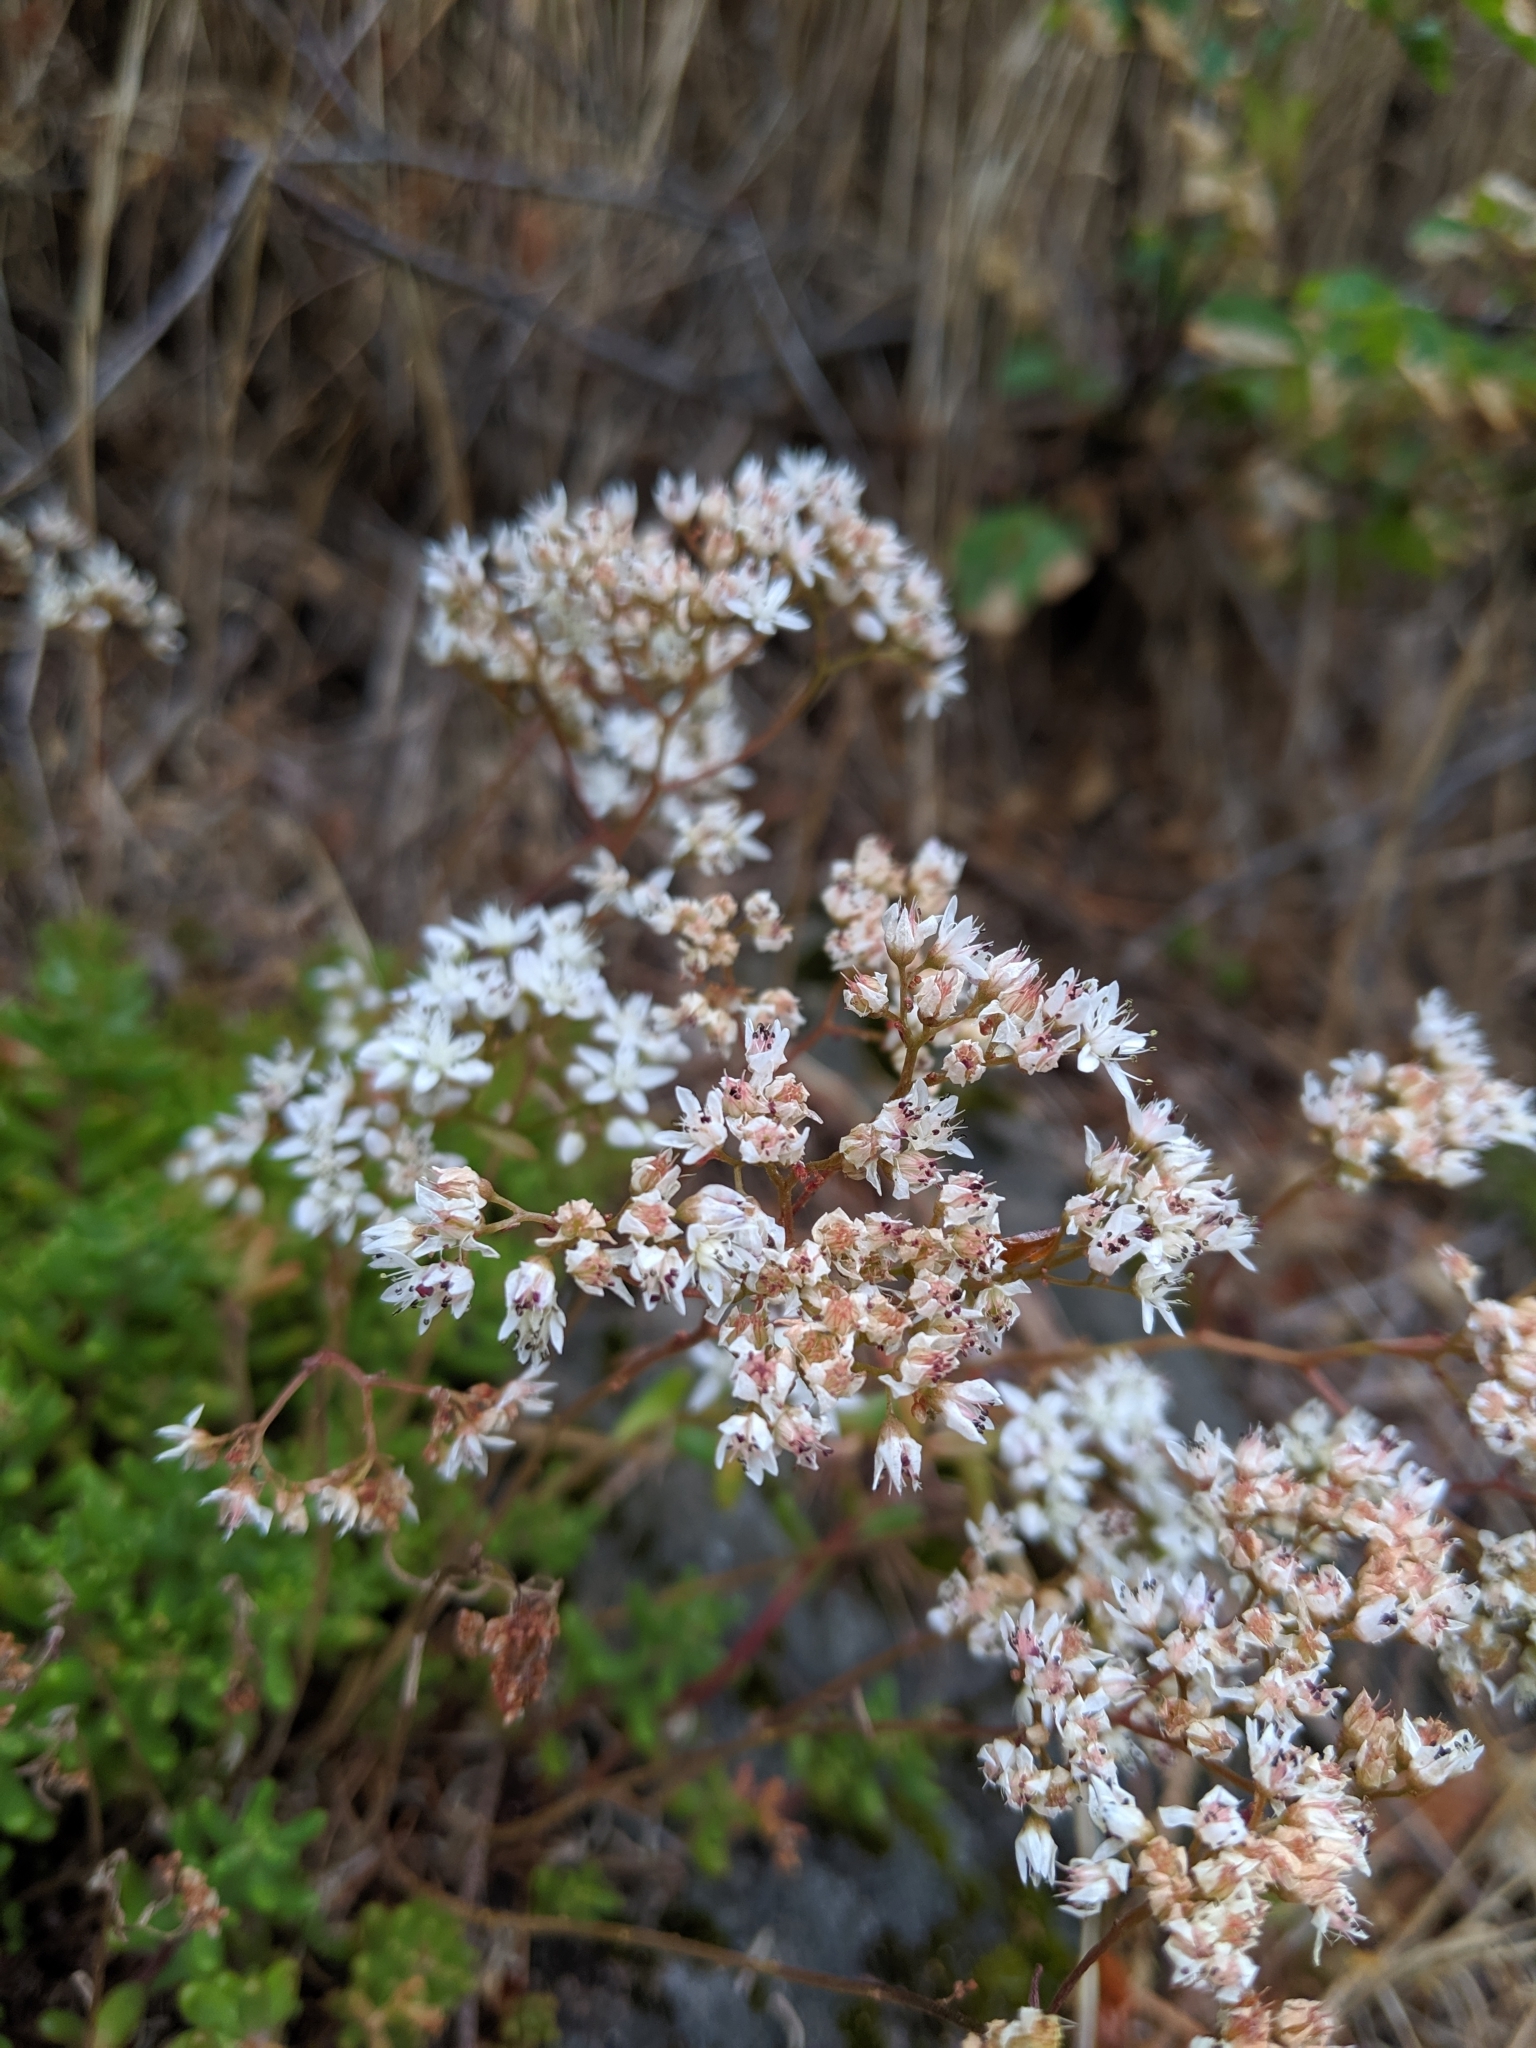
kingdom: Plantae
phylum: Tracheophyta
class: Magnoliopsida
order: Saxifragales
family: Crassulaceae
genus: Sedum
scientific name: Sedum album
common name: White stonecrop
